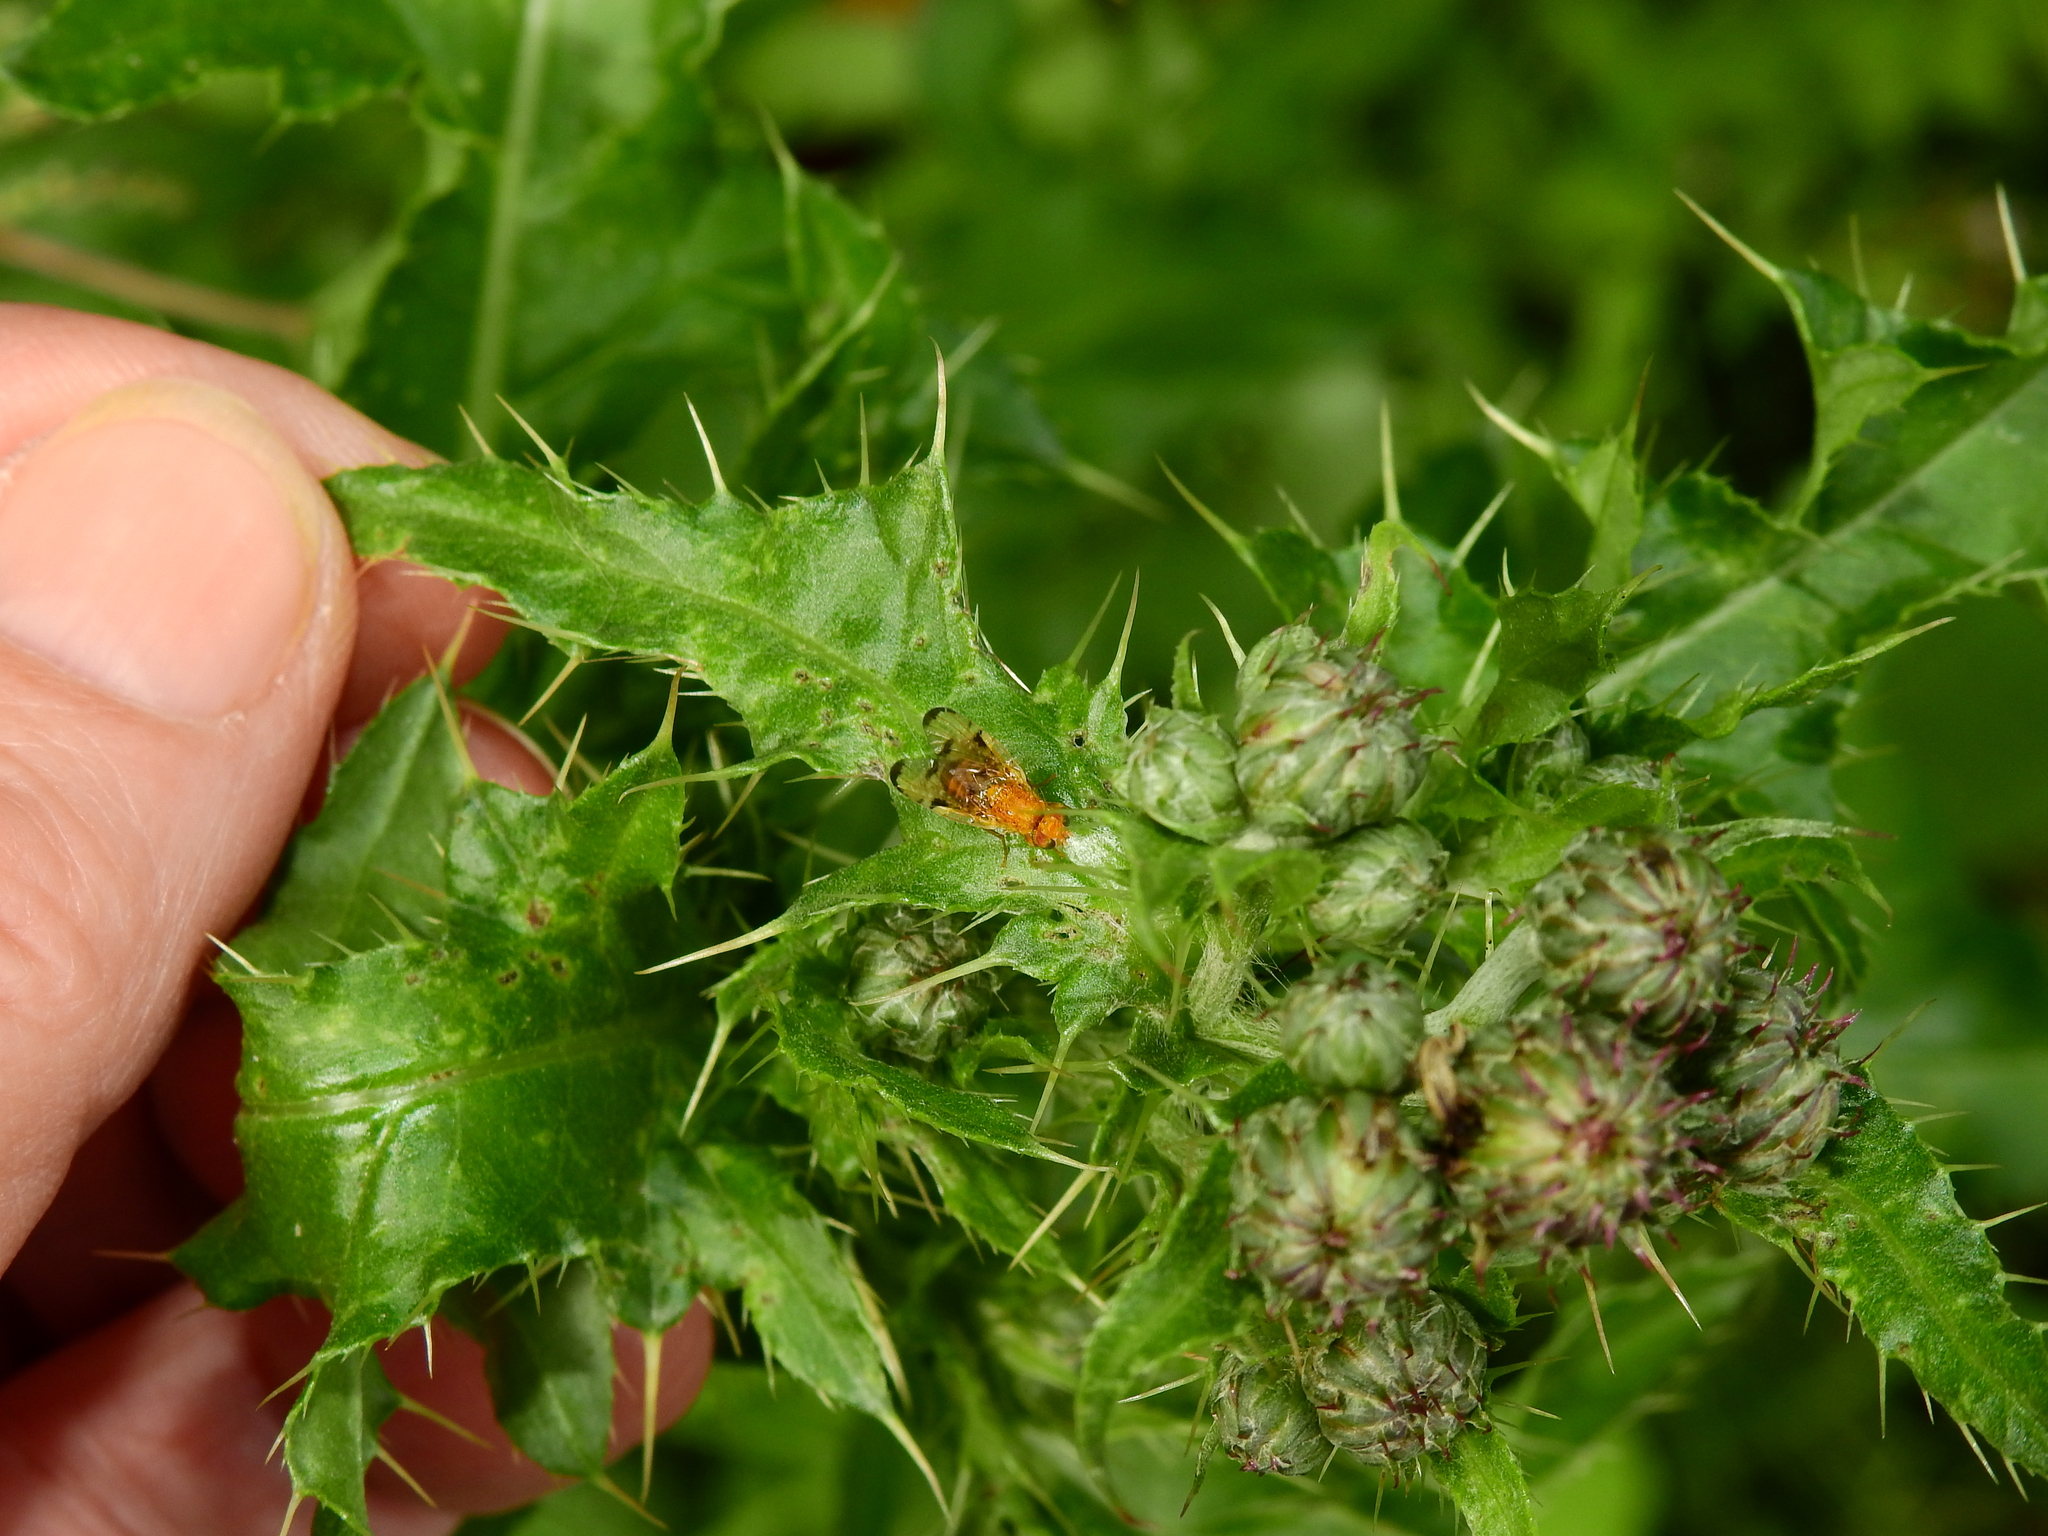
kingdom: Animalia
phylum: Arthropoda
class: Insecta
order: Diptera
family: Tephritidae
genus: Xyphosia
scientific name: Xyphosia miliaria
